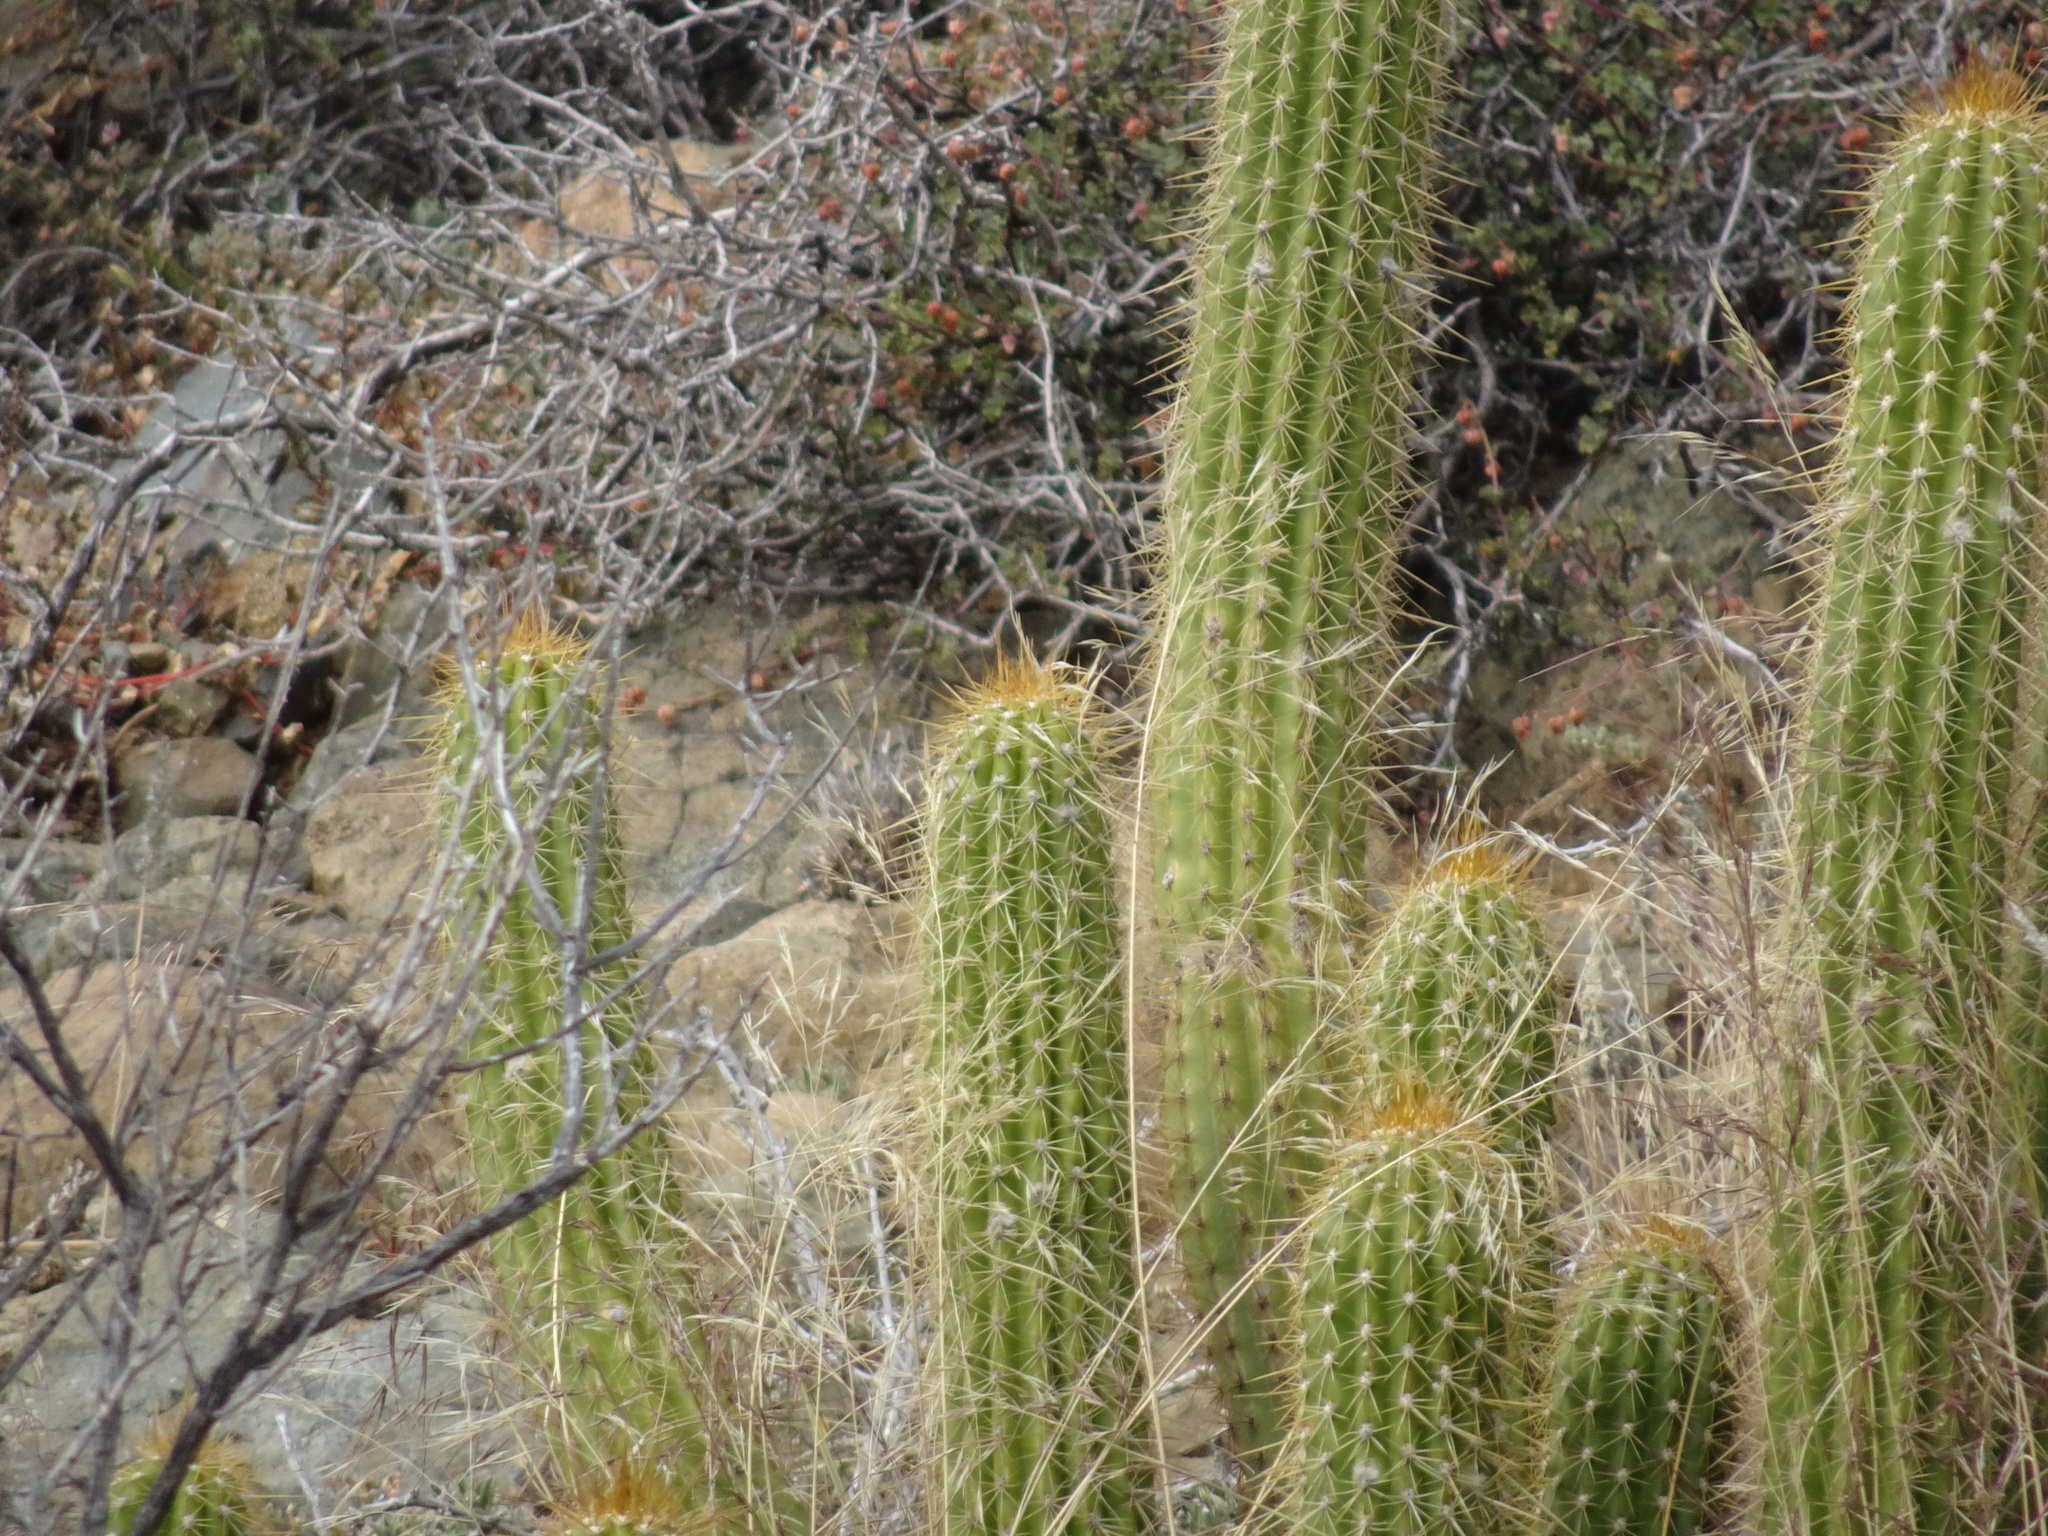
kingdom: Plantae
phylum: Tracheophyta
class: Magnoliopsida
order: Caryophyllales
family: Cactaceae
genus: Soehrensia
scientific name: Soehrensia spachiana
